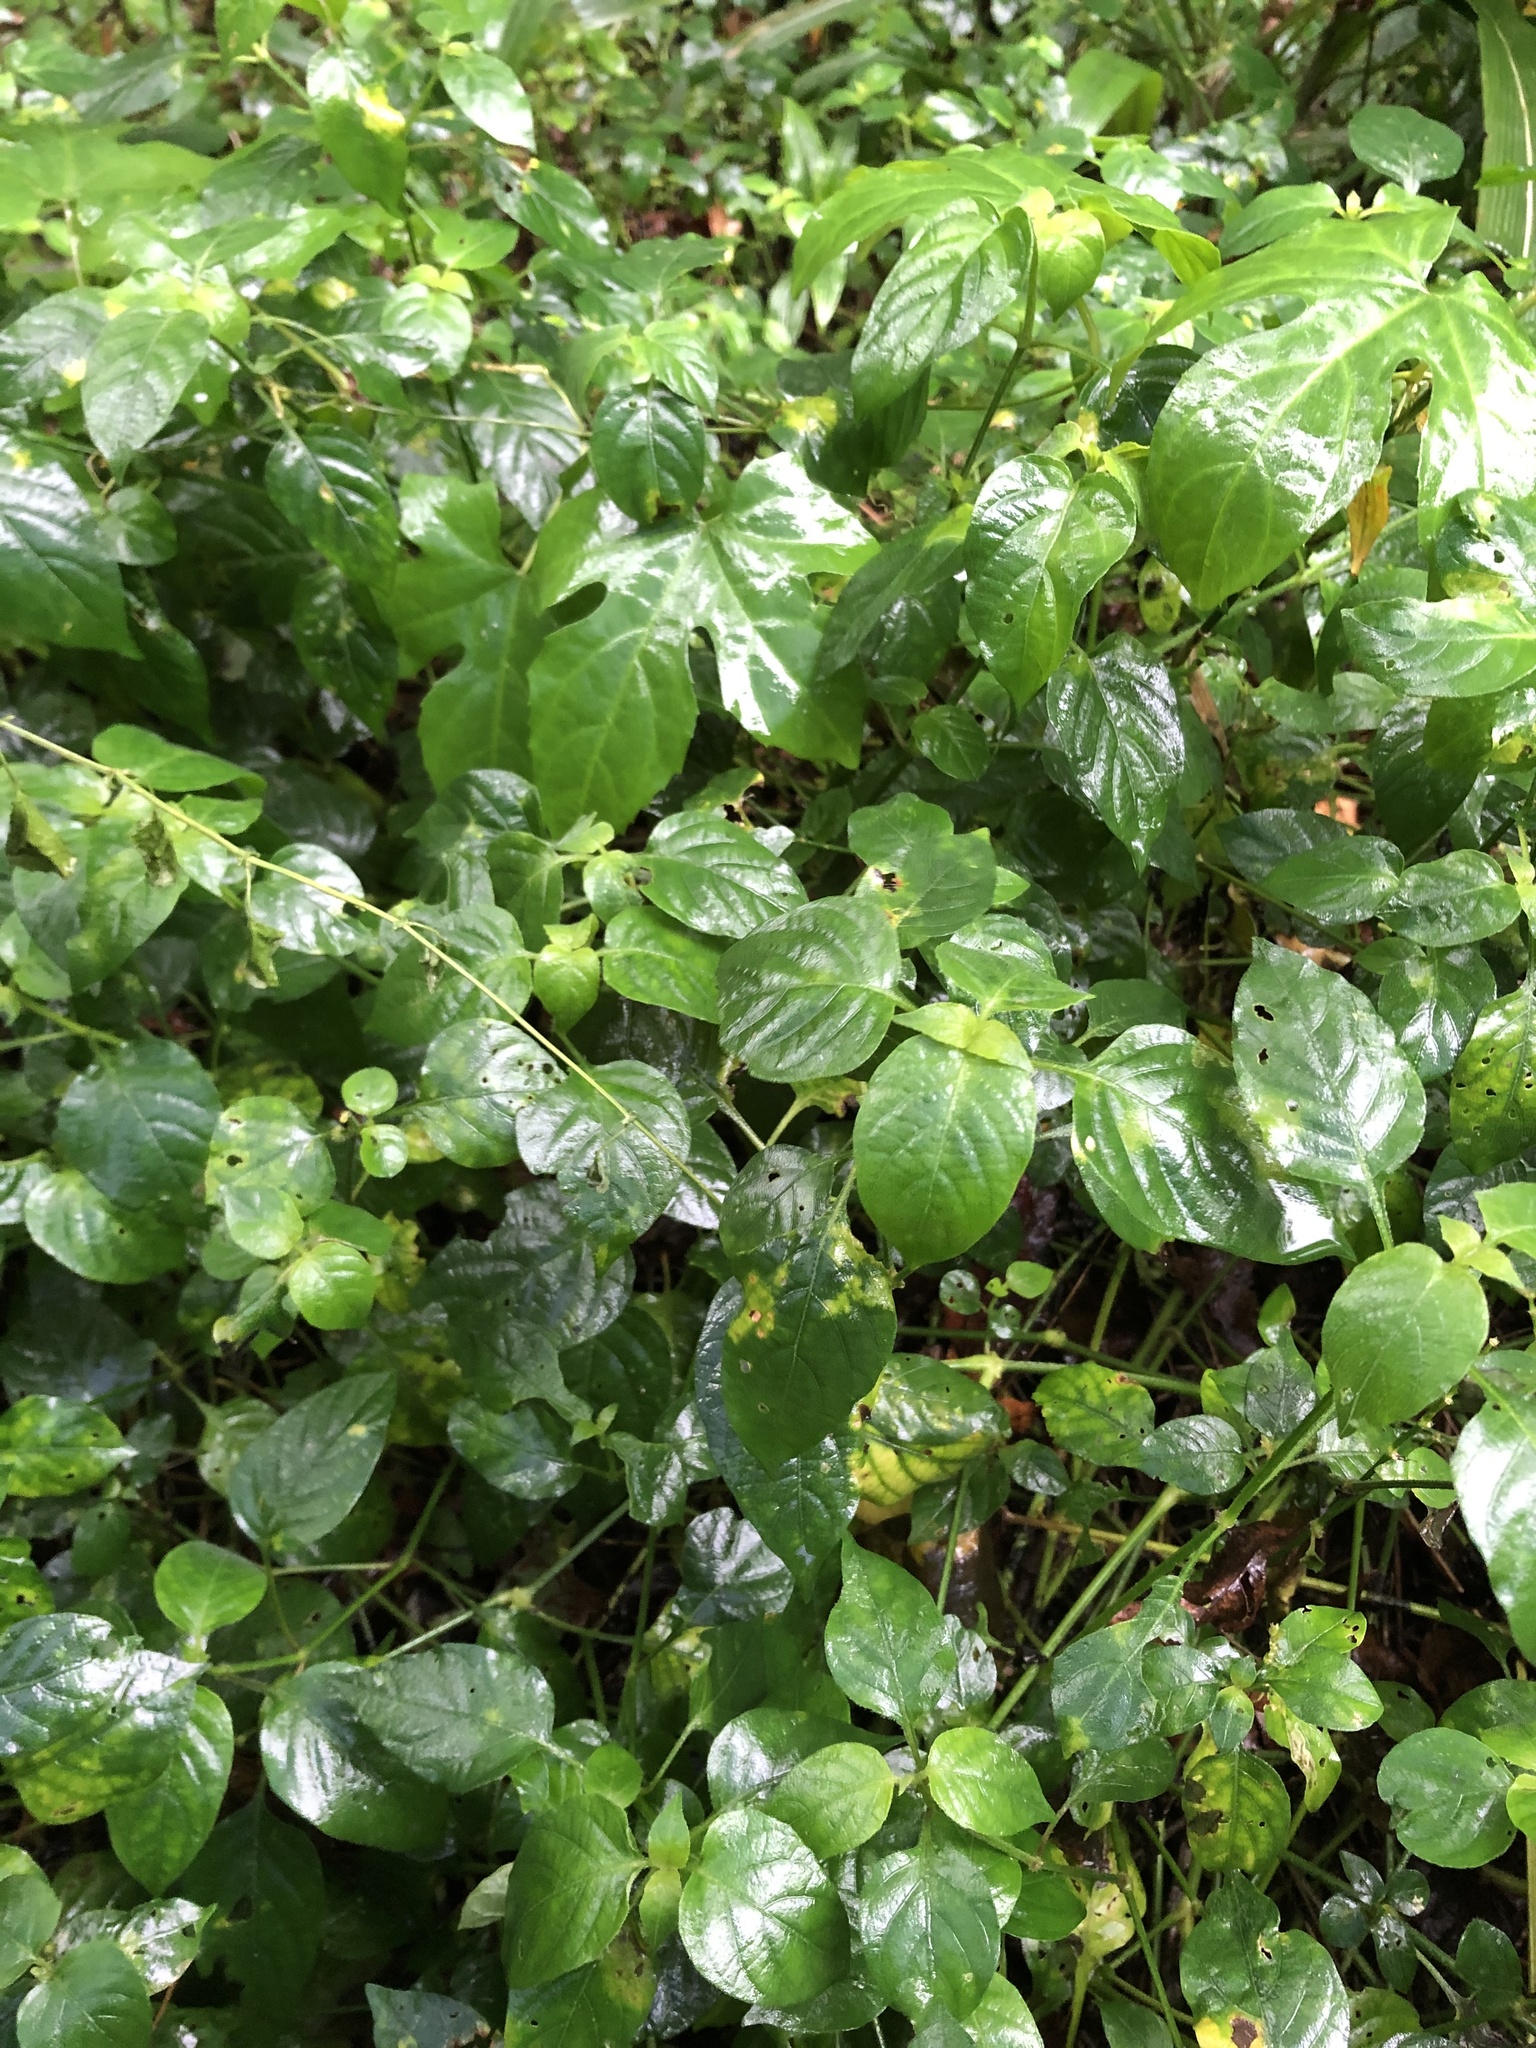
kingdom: Plantae
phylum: Tracheophyta
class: Magnoliopsida
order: Lamiales
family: Acanthaceae
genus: Asystasia
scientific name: Asystasia intrusa
